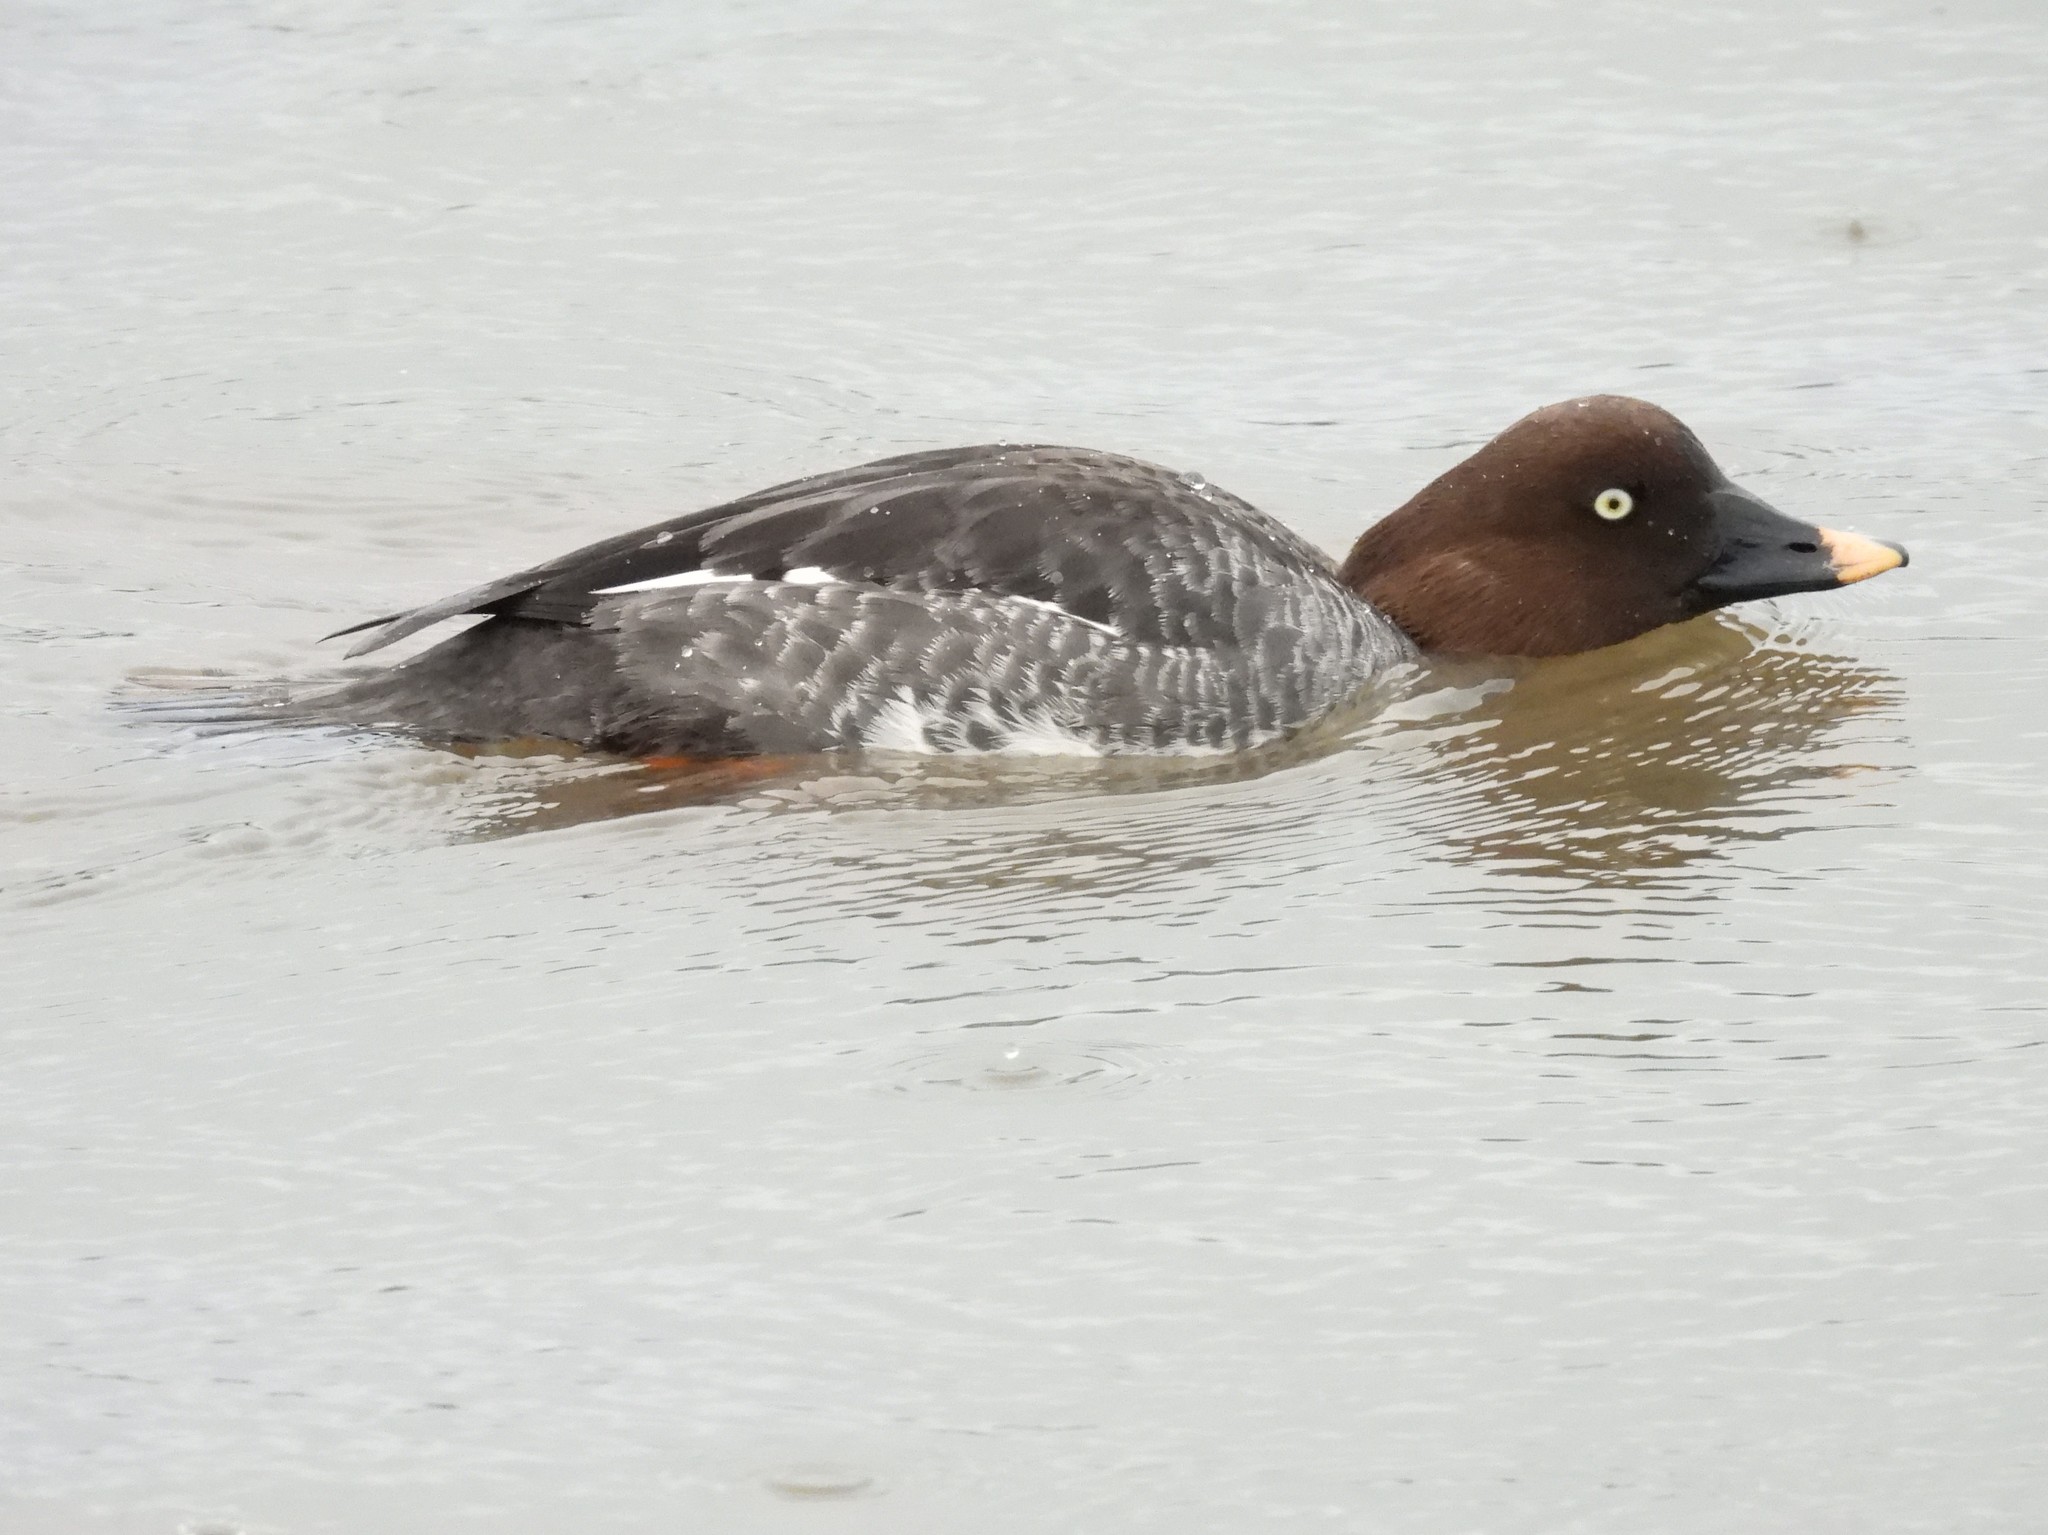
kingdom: Animalia
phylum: Chordata
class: Aves
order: Anseriformes
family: Anatidae
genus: Bucephala
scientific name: Bucephala clangula
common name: Common goldeneye
